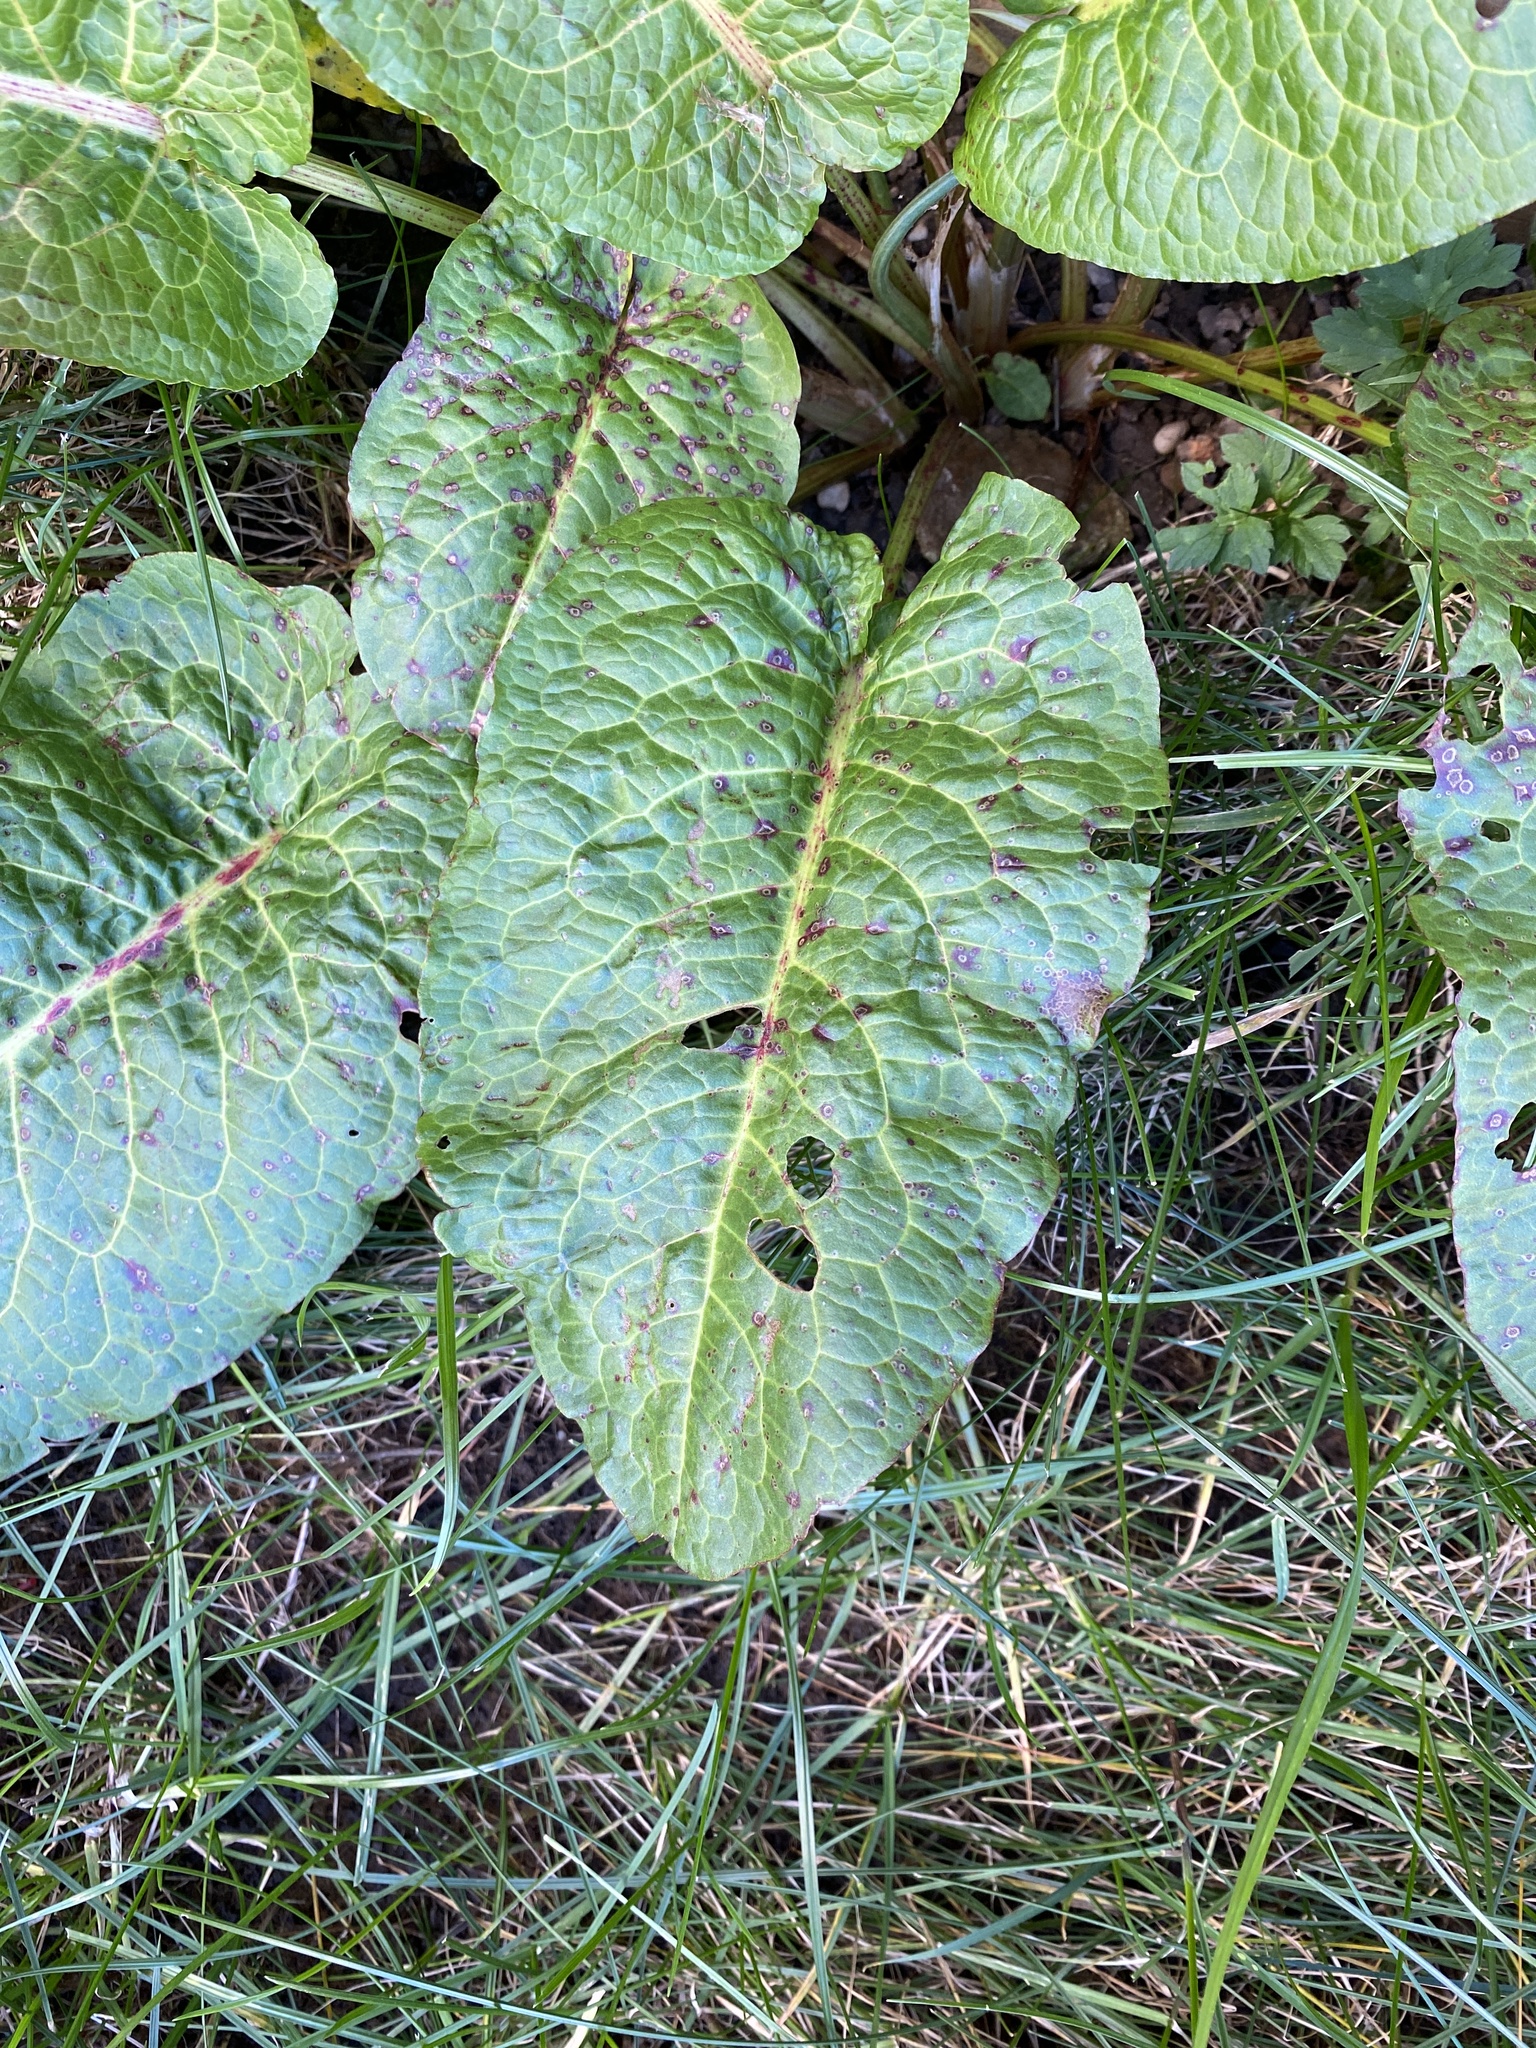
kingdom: Plantae
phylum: Tracheophyta
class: Magnoliopsida
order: Caryophyllales
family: Polygonaceae
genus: Rumex
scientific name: Rumex obtusifolius
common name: Bitter dock
